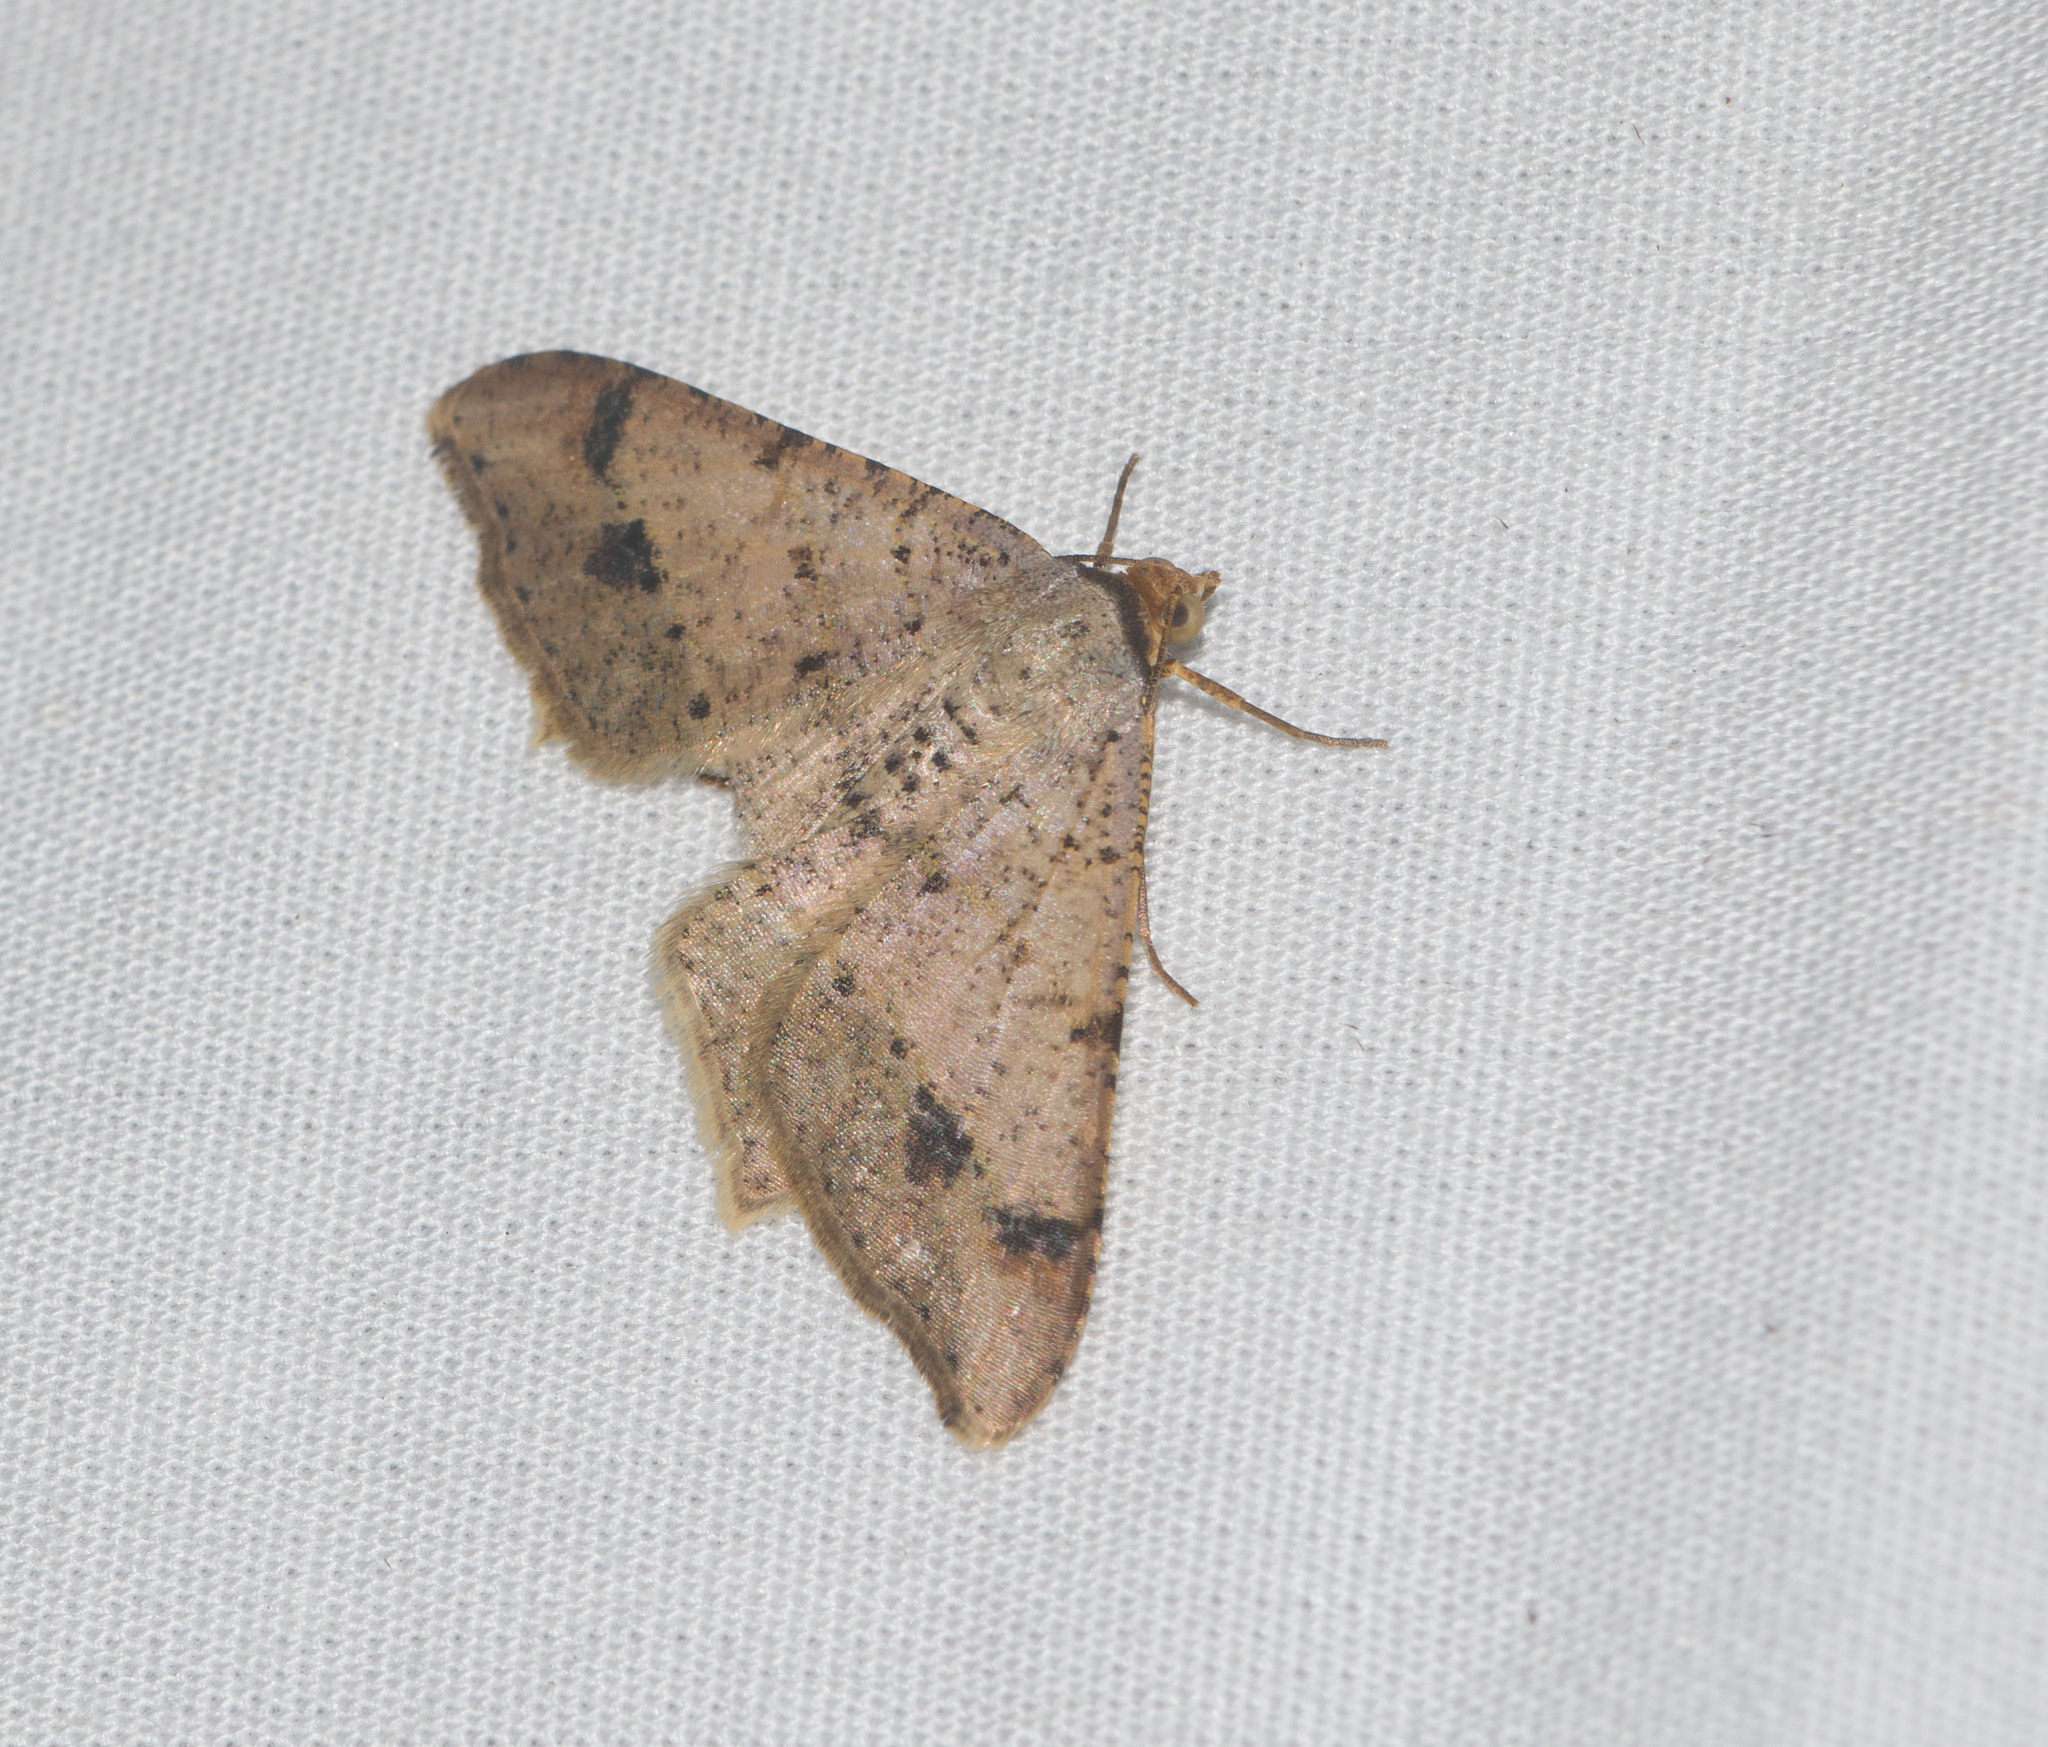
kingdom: Animalia
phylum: Arthropoda
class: Insecta
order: Lepidoptera
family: Geometridae
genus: Macaria
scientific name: Macaria abydata
